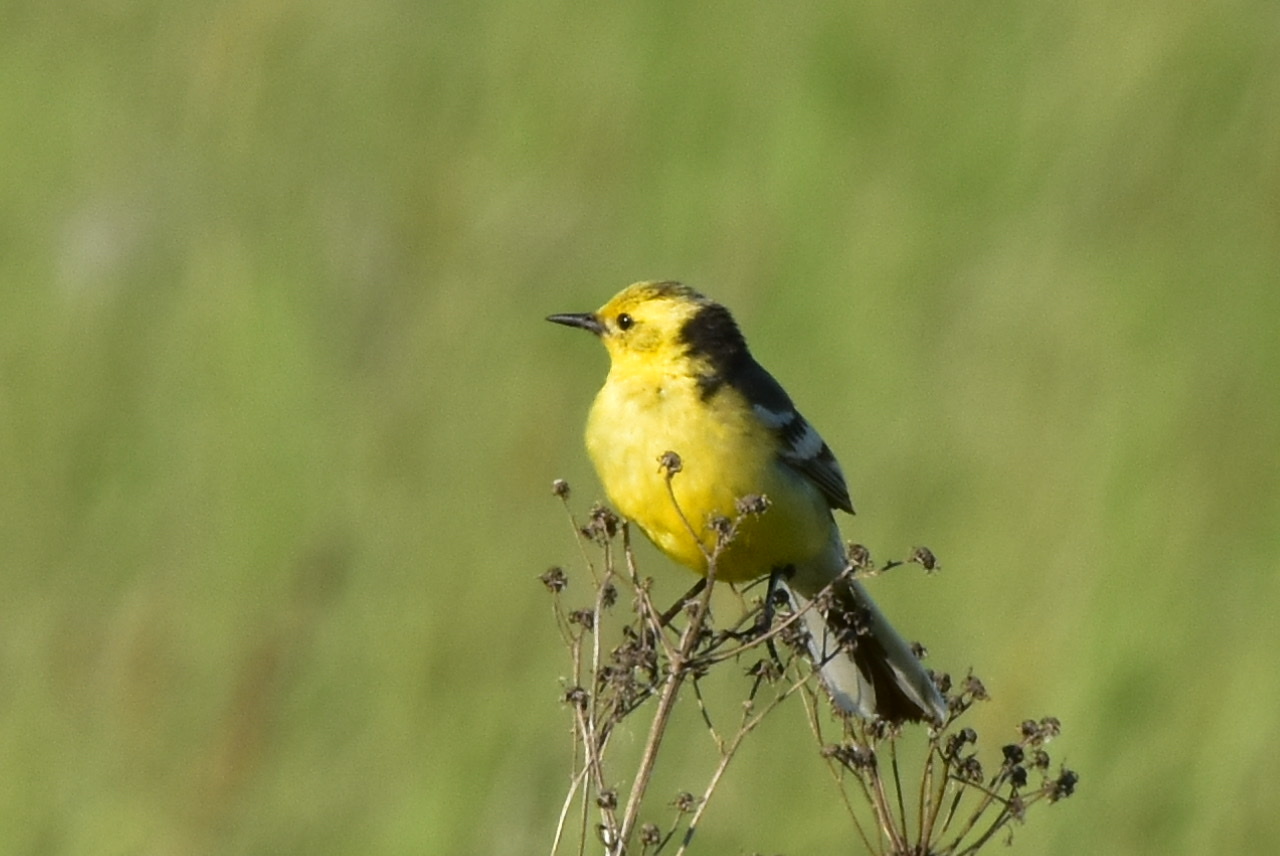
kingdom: Animalia
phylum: Chordata
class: Aves
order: Passeriformes
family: Motacillidae
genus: Motacilla
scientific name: Motacilla citreola
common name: Citrine wagtail
